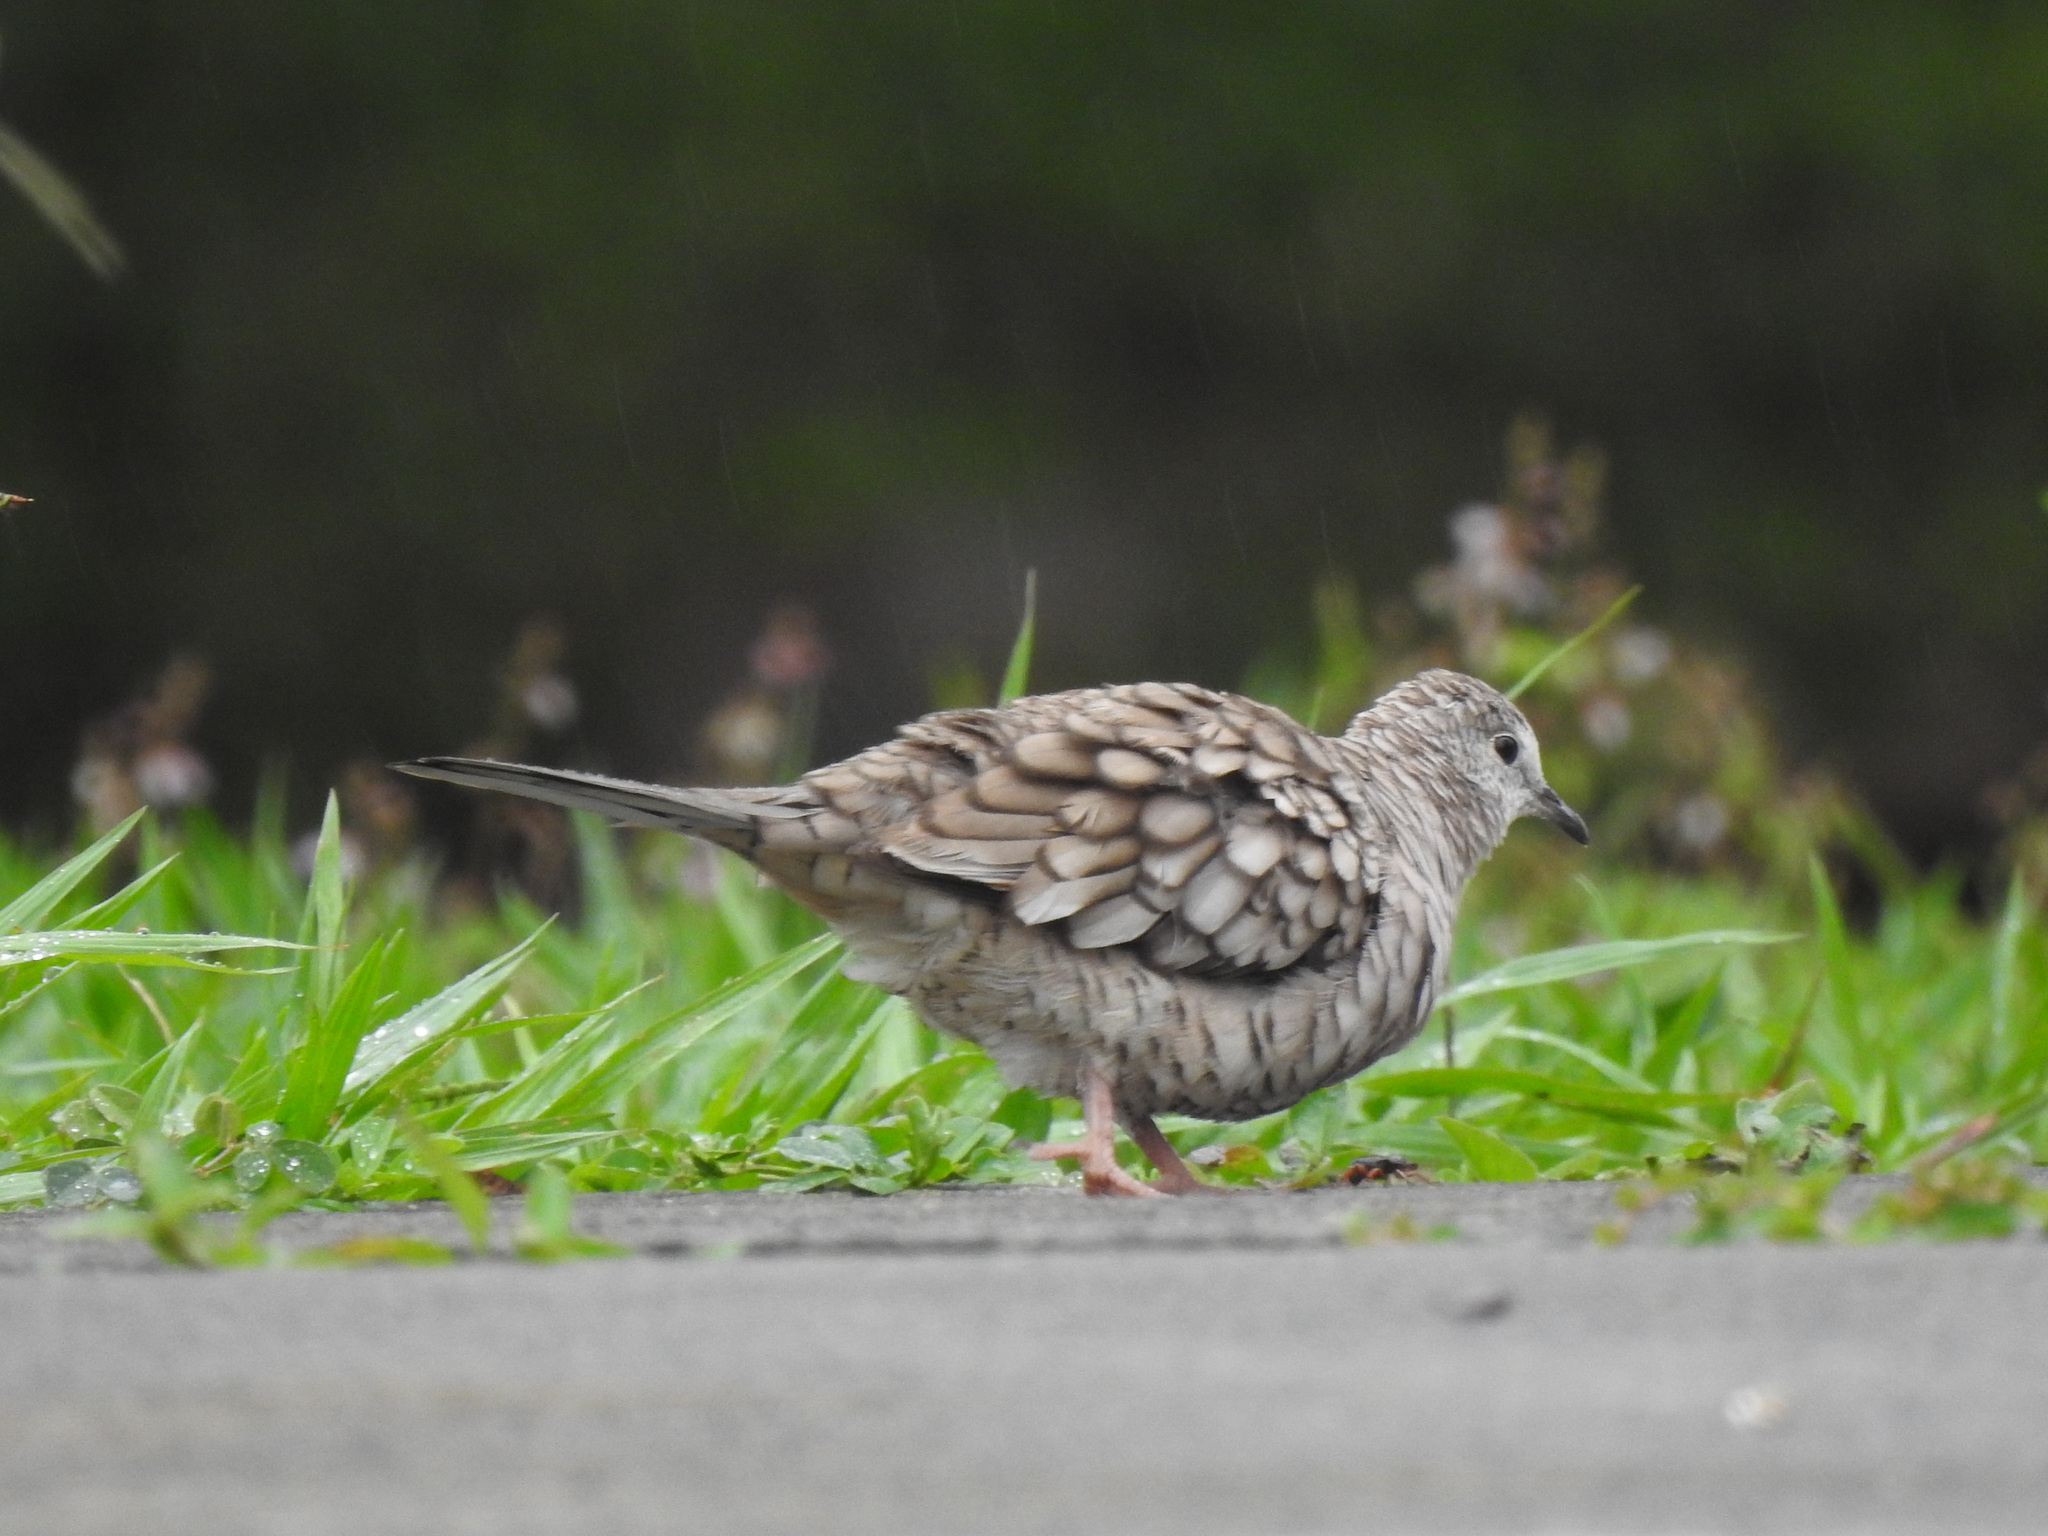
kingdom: Animalia
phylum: Chordata
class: Aves
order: Columbiformes
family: Columbidae
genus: Columbina
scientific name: Columbina inca
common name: Inca dove
